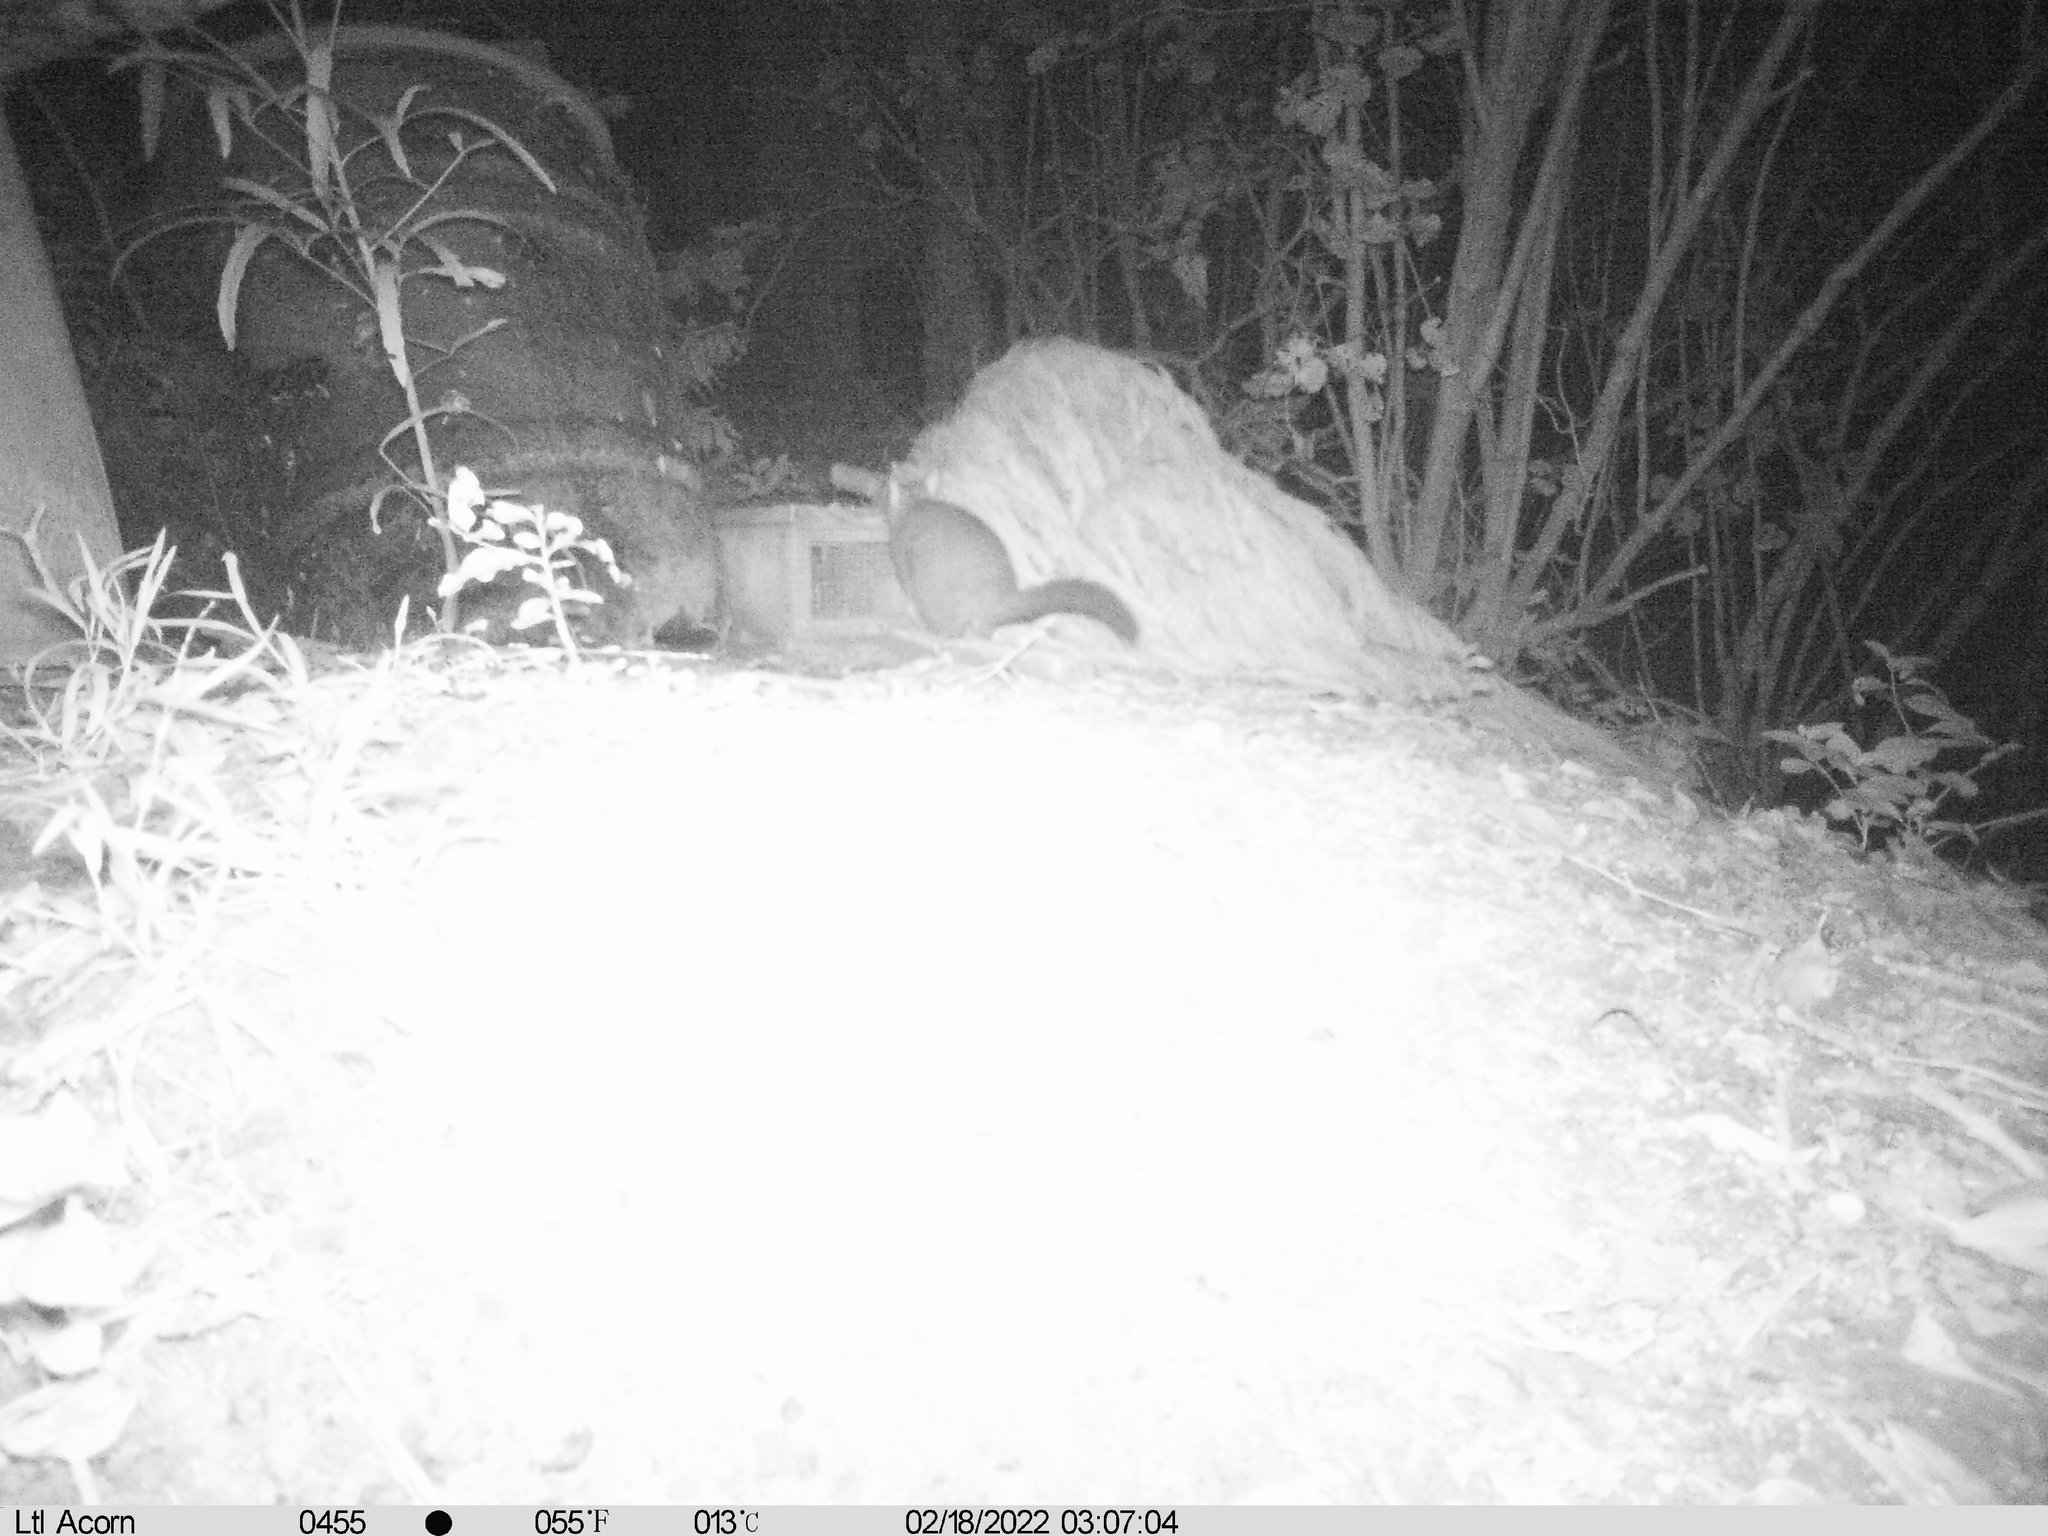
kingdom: Animalia
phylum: Chordata
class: Mammalia
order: Diprotodontia
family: Phalangeridae
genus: Trichosurus
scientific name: Trichosurus vulpecula
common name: Common brushtail
